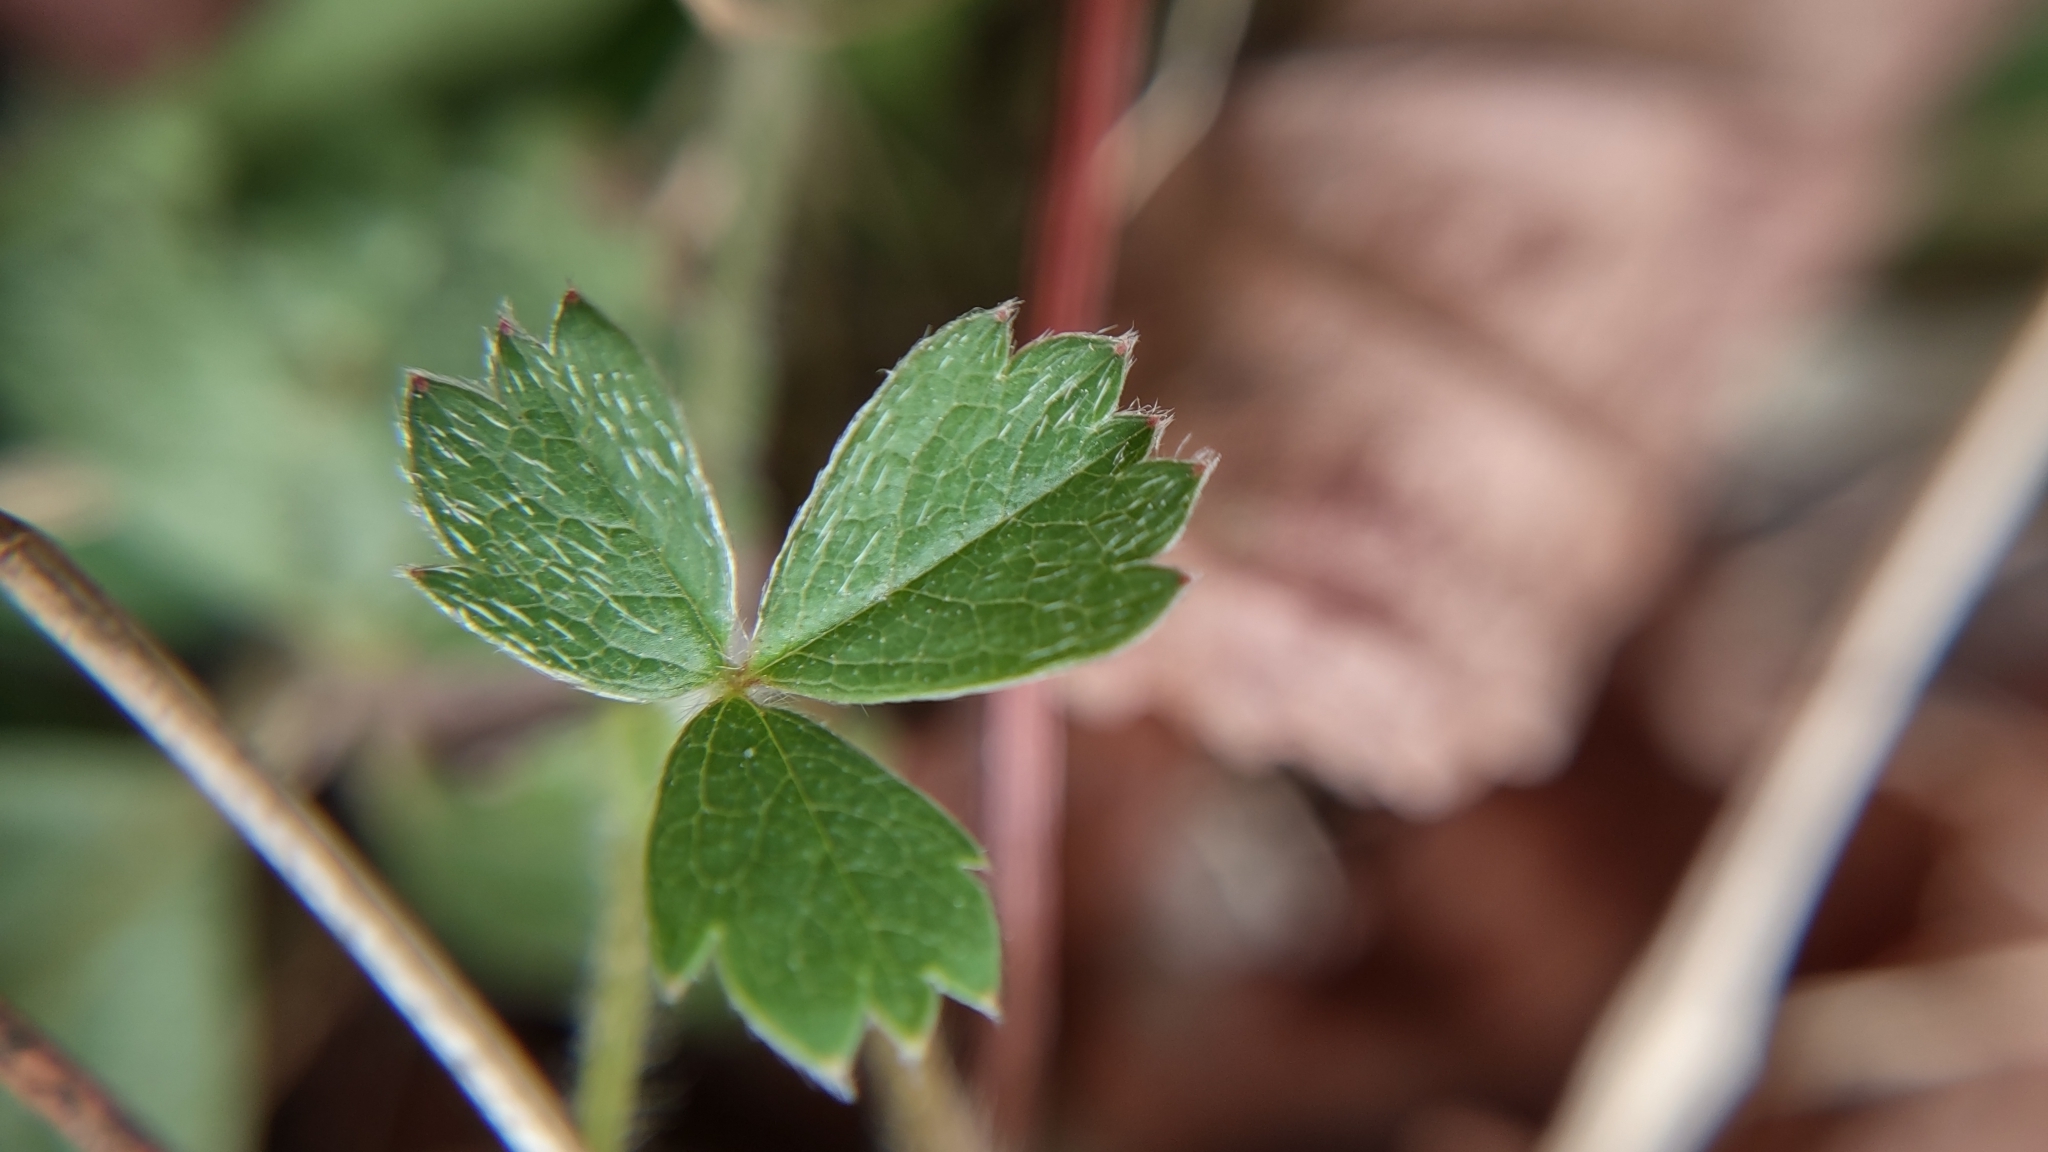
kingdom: Plantae
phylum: Tracheophyta
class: Magnoliopsida
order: Rosales
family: Rosaceae
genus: Potentilla
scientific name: Potentilla sterilis
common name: Barren strawberry
